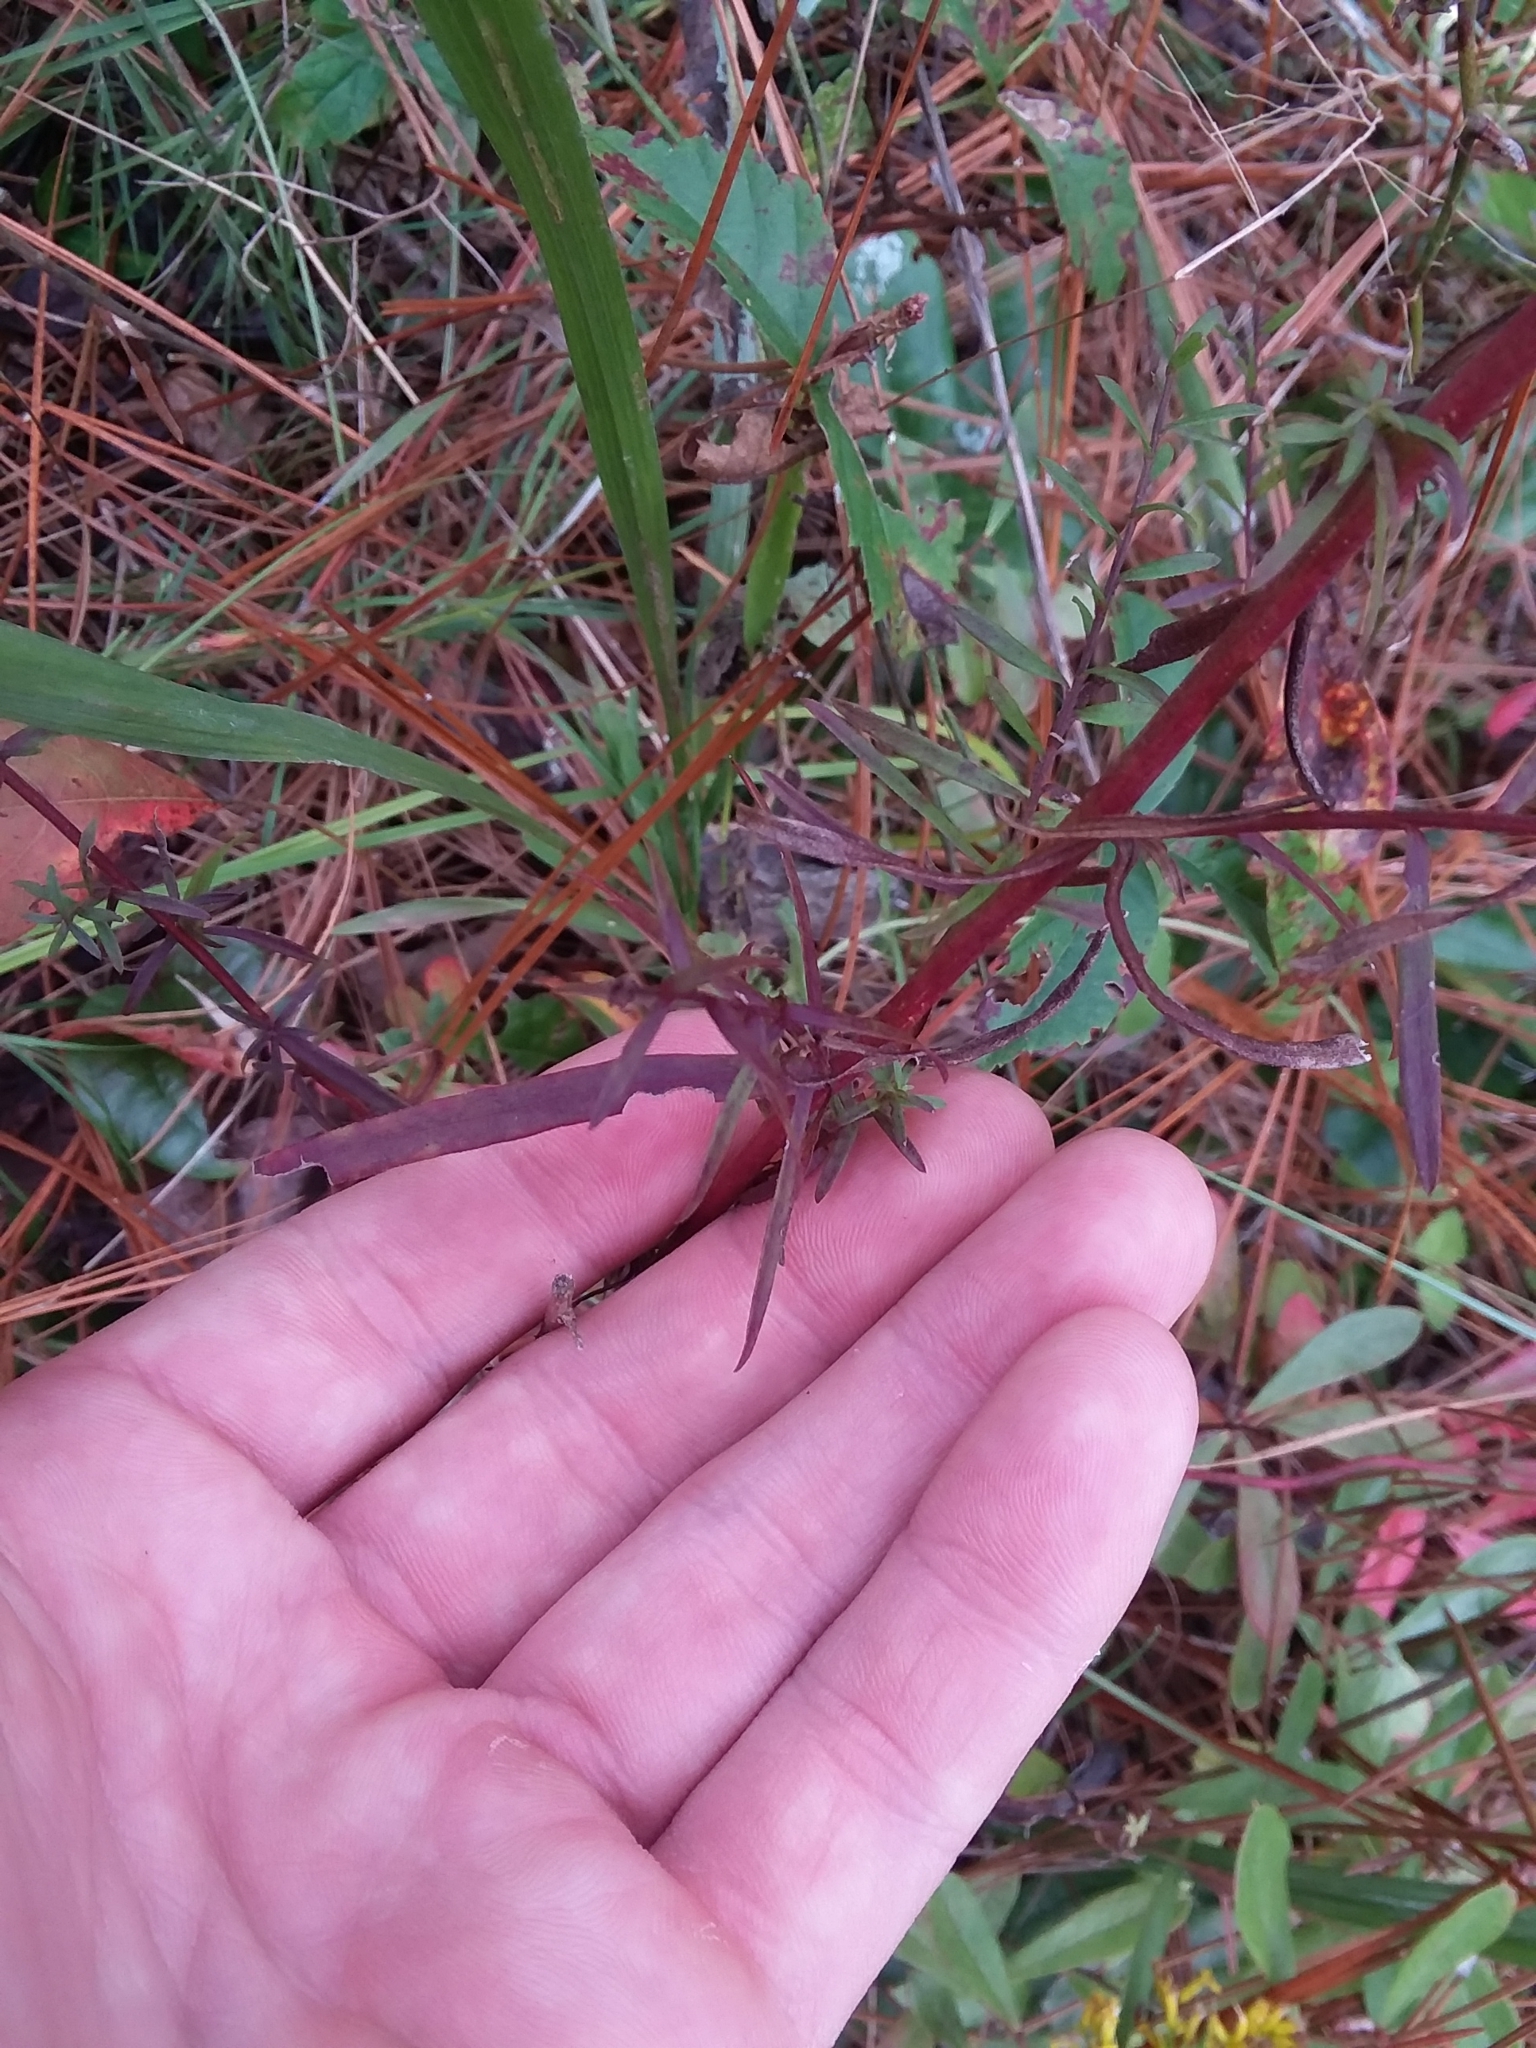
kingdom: Plantae
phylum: Tracheophyta
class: Magnoliopsida
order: Asterales
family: Asteraceae
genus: Symphyotrichum
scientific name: Symphyotrichum dumosum
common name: Bushy aster
